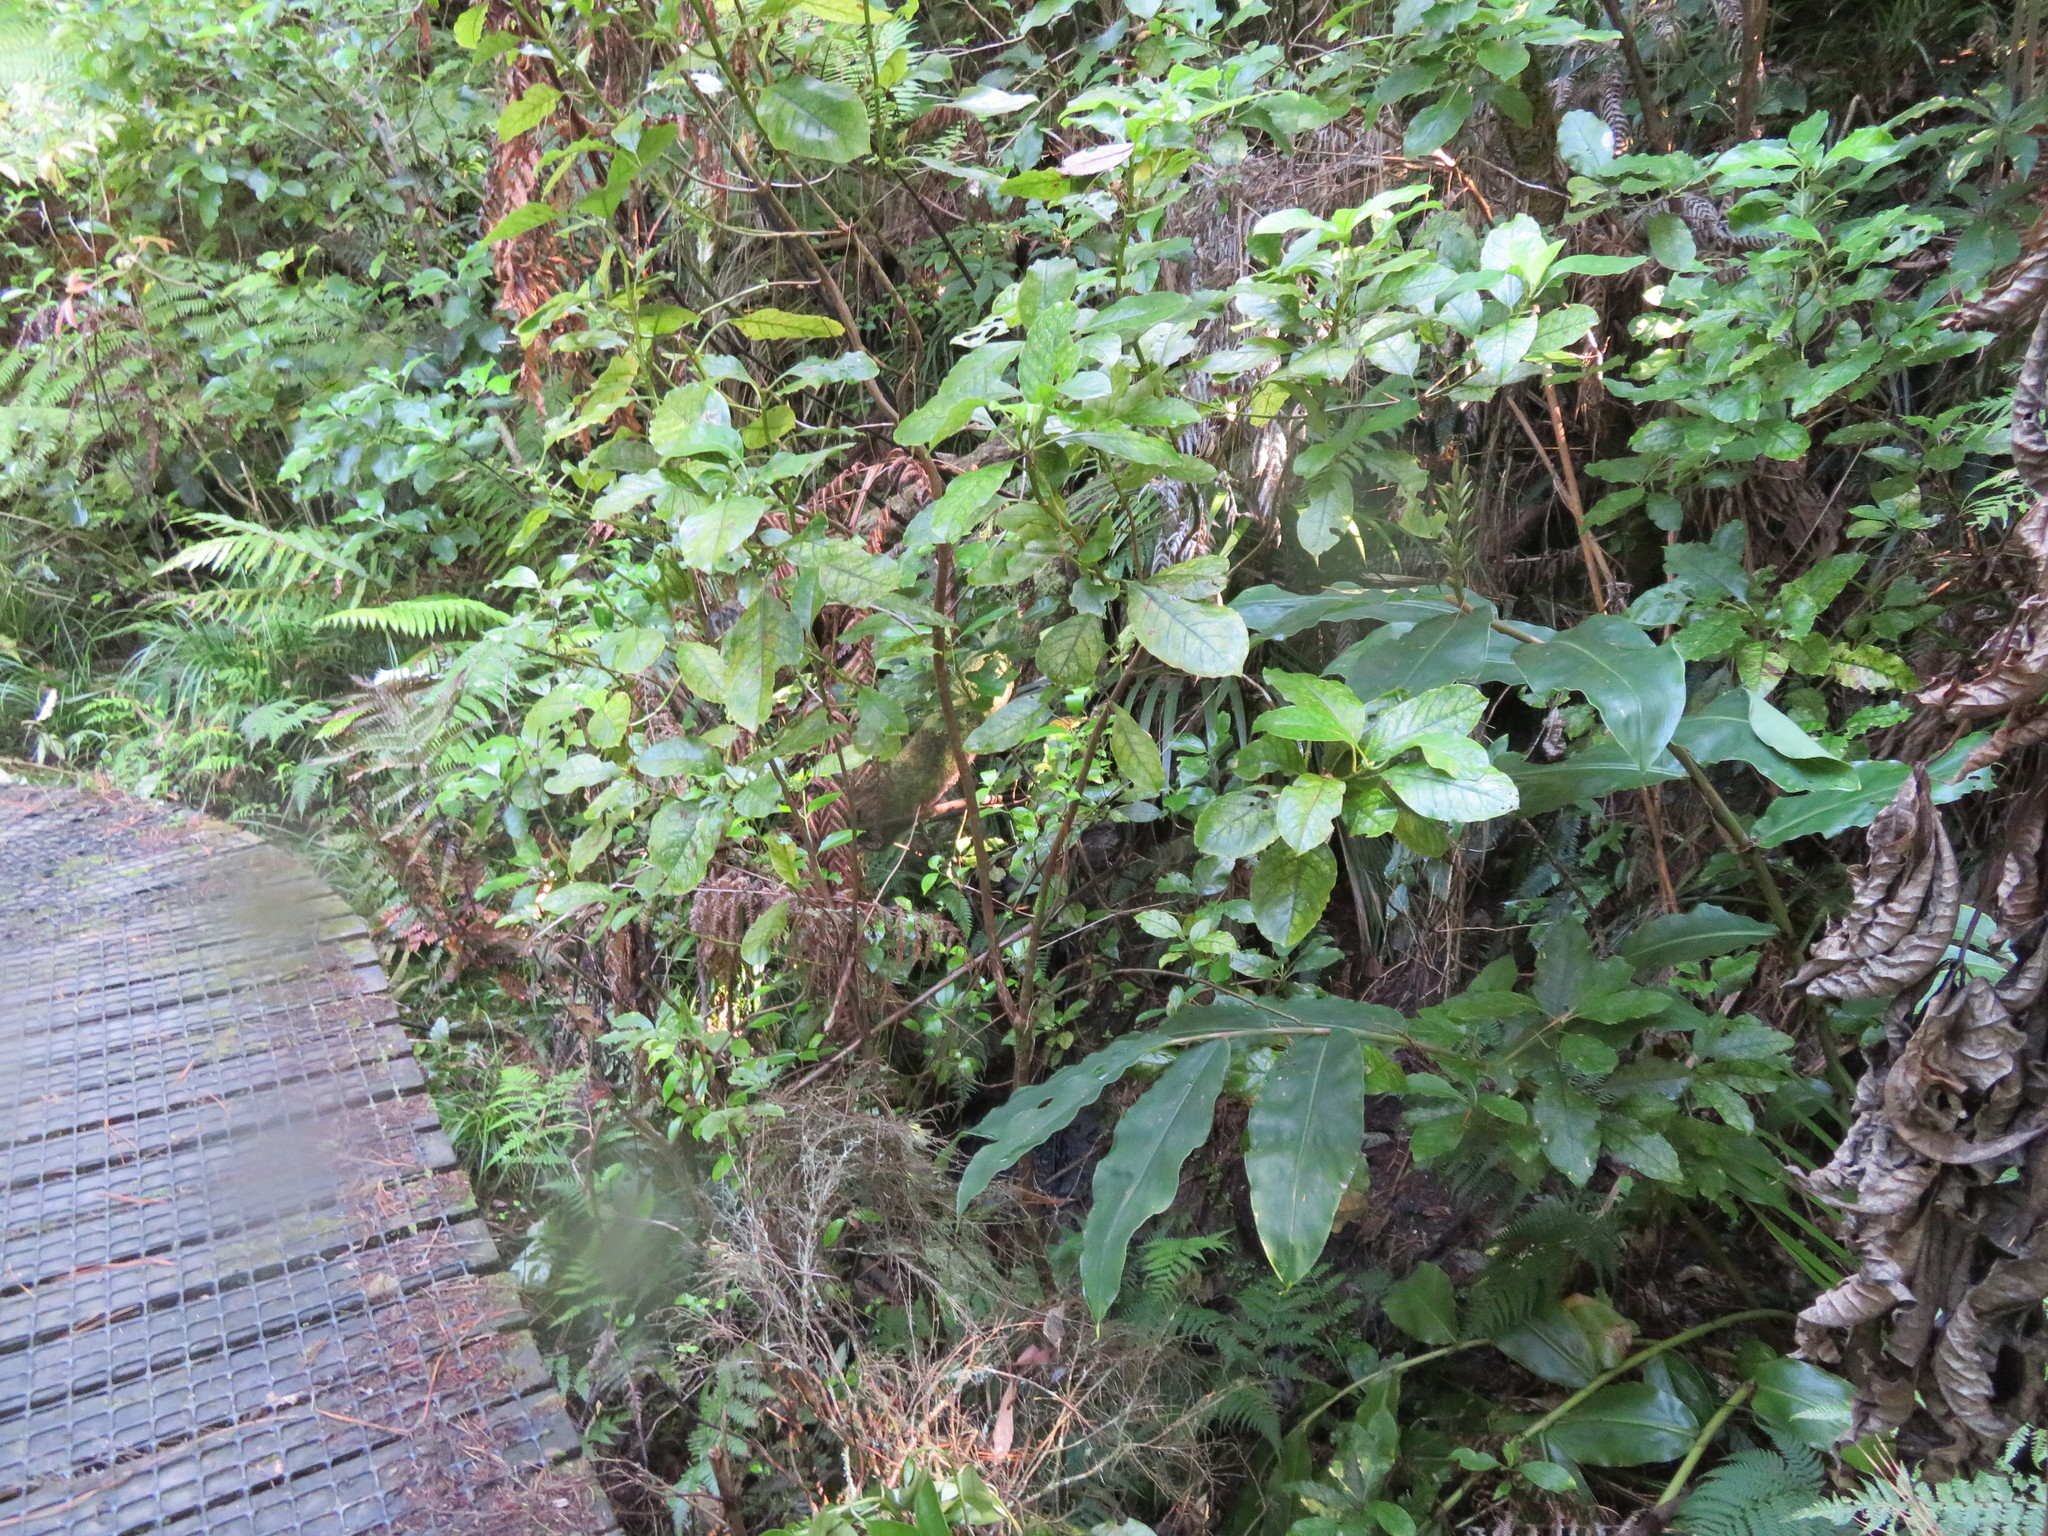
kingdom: Plantae
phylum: Tracheophyta
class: Magnoliopsida
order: Gentianales
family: Rubiaceae
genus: Coprosma
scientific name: Coprosma autumnalis
